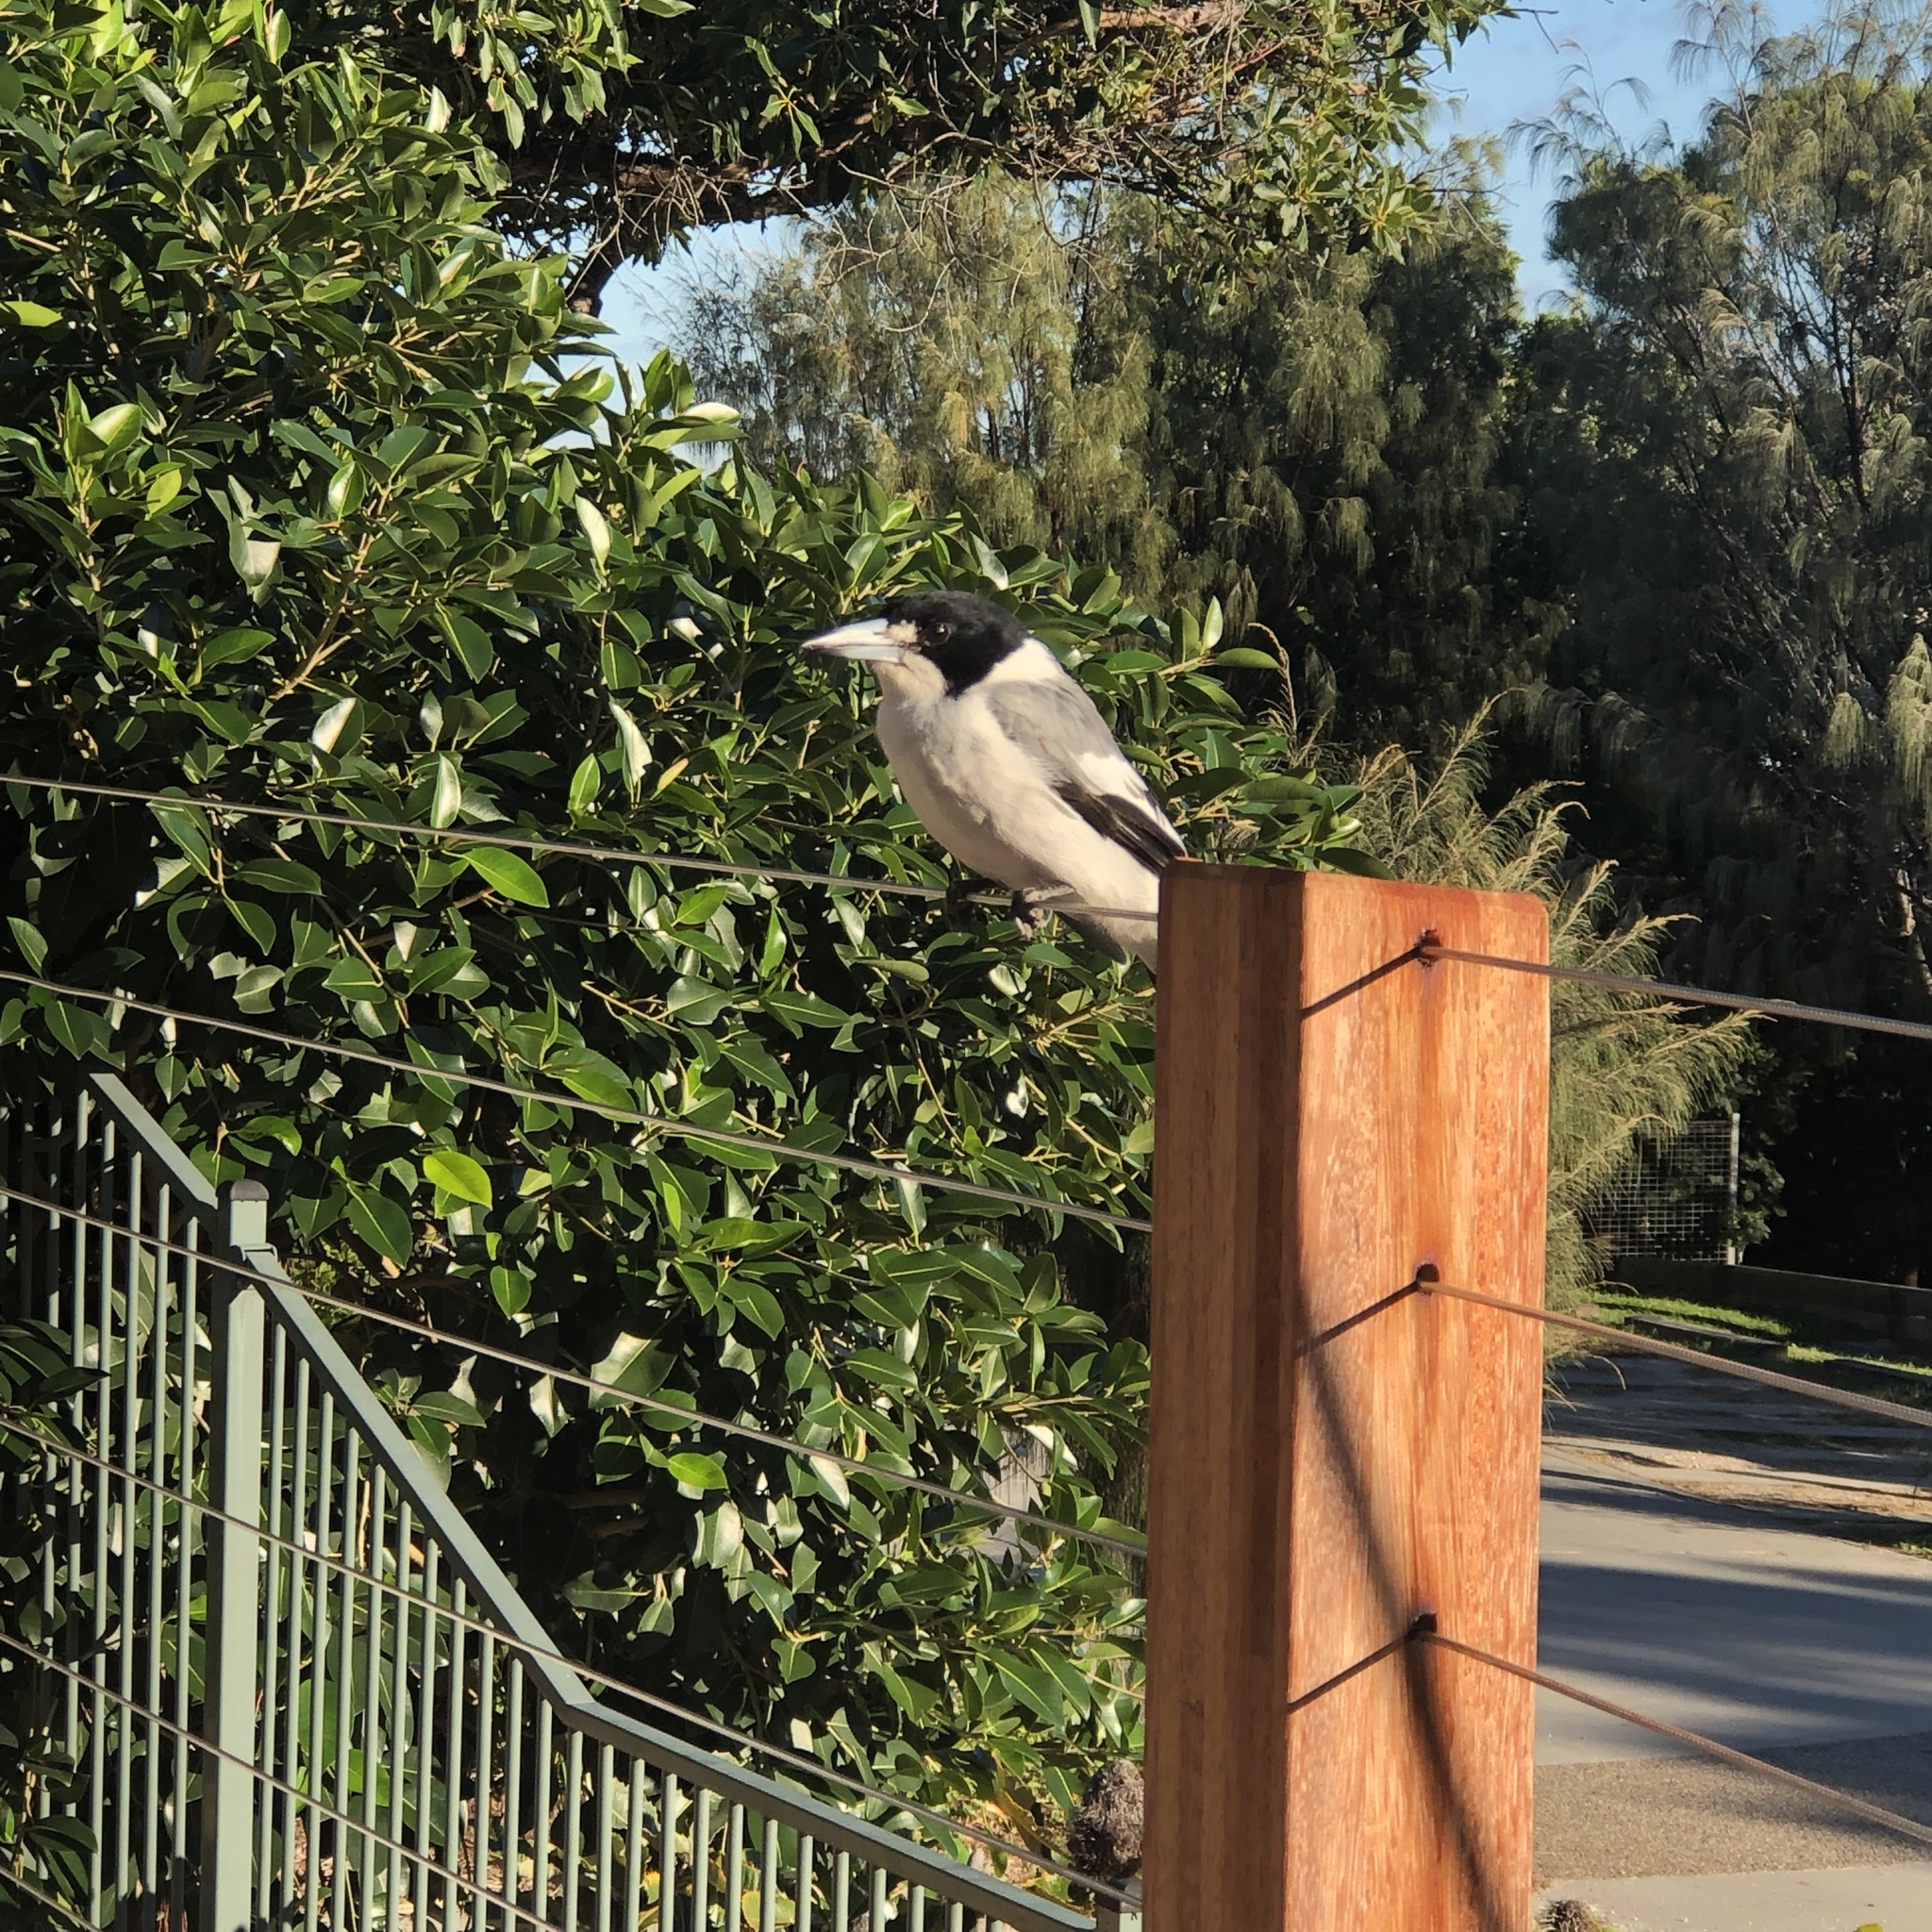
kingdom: Animalia
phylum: Chordata
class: Aves
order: Passeriformes
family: Cracticidae
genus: Cracticus
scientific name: Cracticus torquatus
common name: Grey butcherbird
